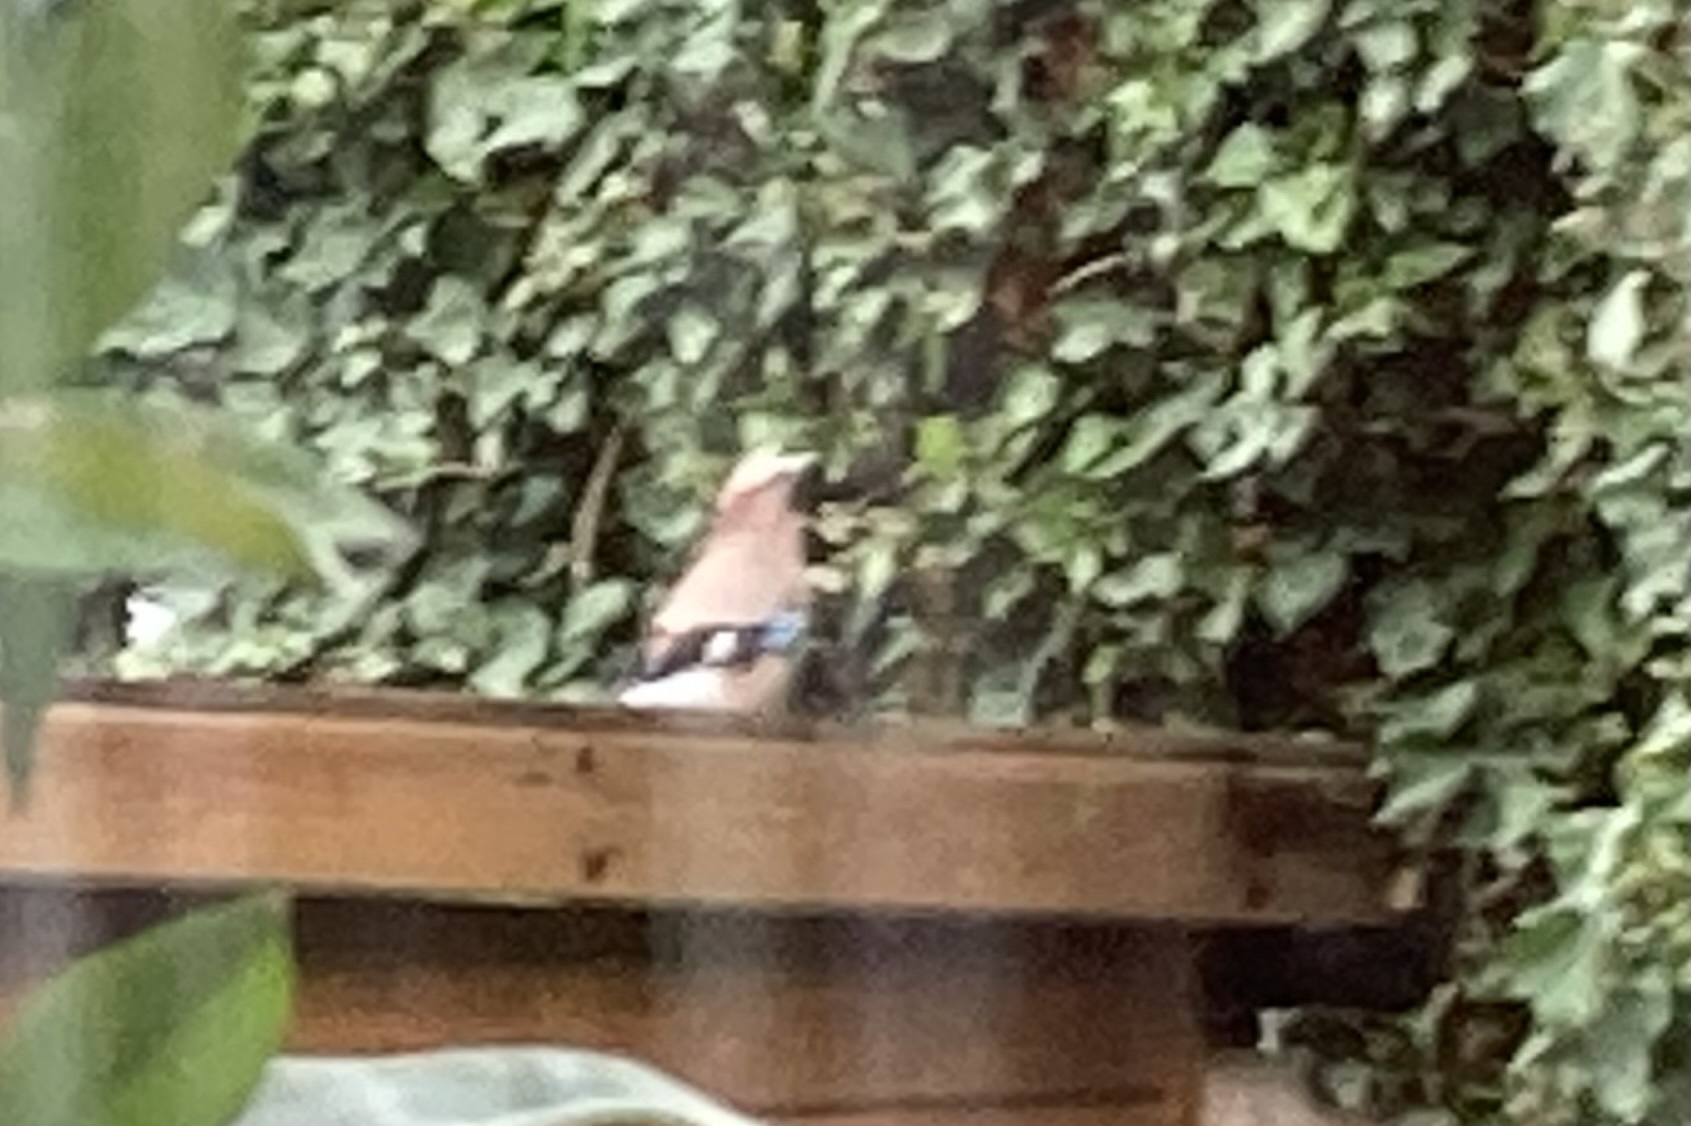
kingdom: Animalia
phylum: Chordata
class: Aves
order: Passeriformes
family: Corvidae
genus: Garrulus
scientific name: Garrulus glandarius
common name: Eurasian jay
